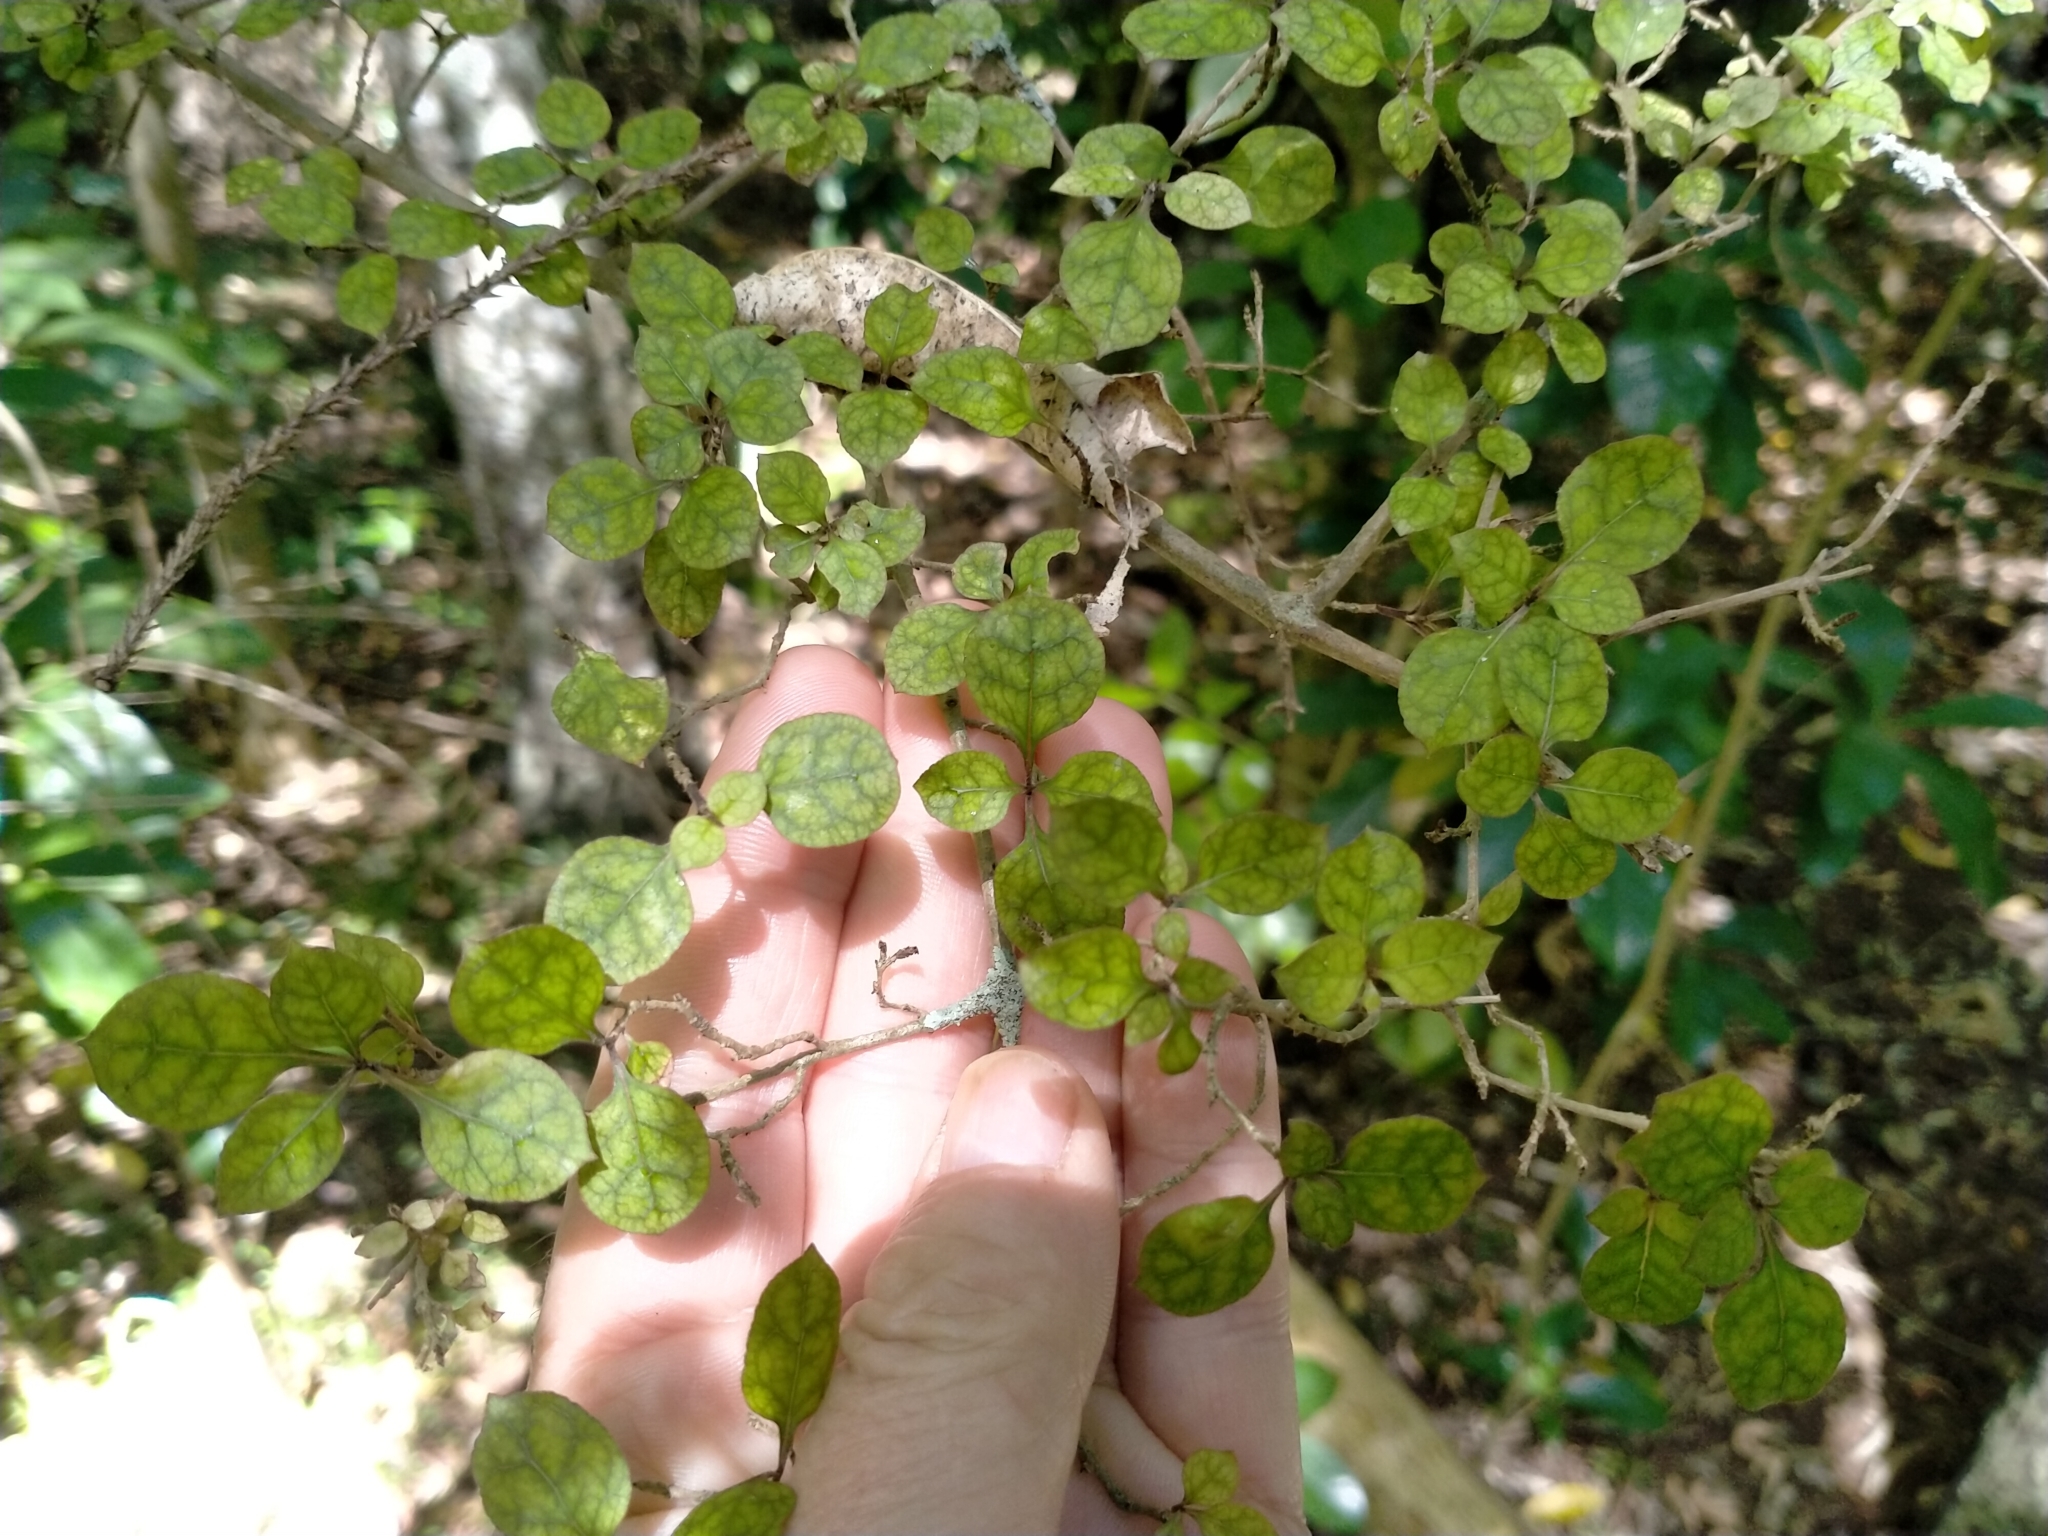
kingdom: Plantae
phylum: Tracheophyta
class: Magnoliopsida
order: Gentianales
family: Rubiaceae
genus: Coprosma
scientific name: Coprosma areolata
